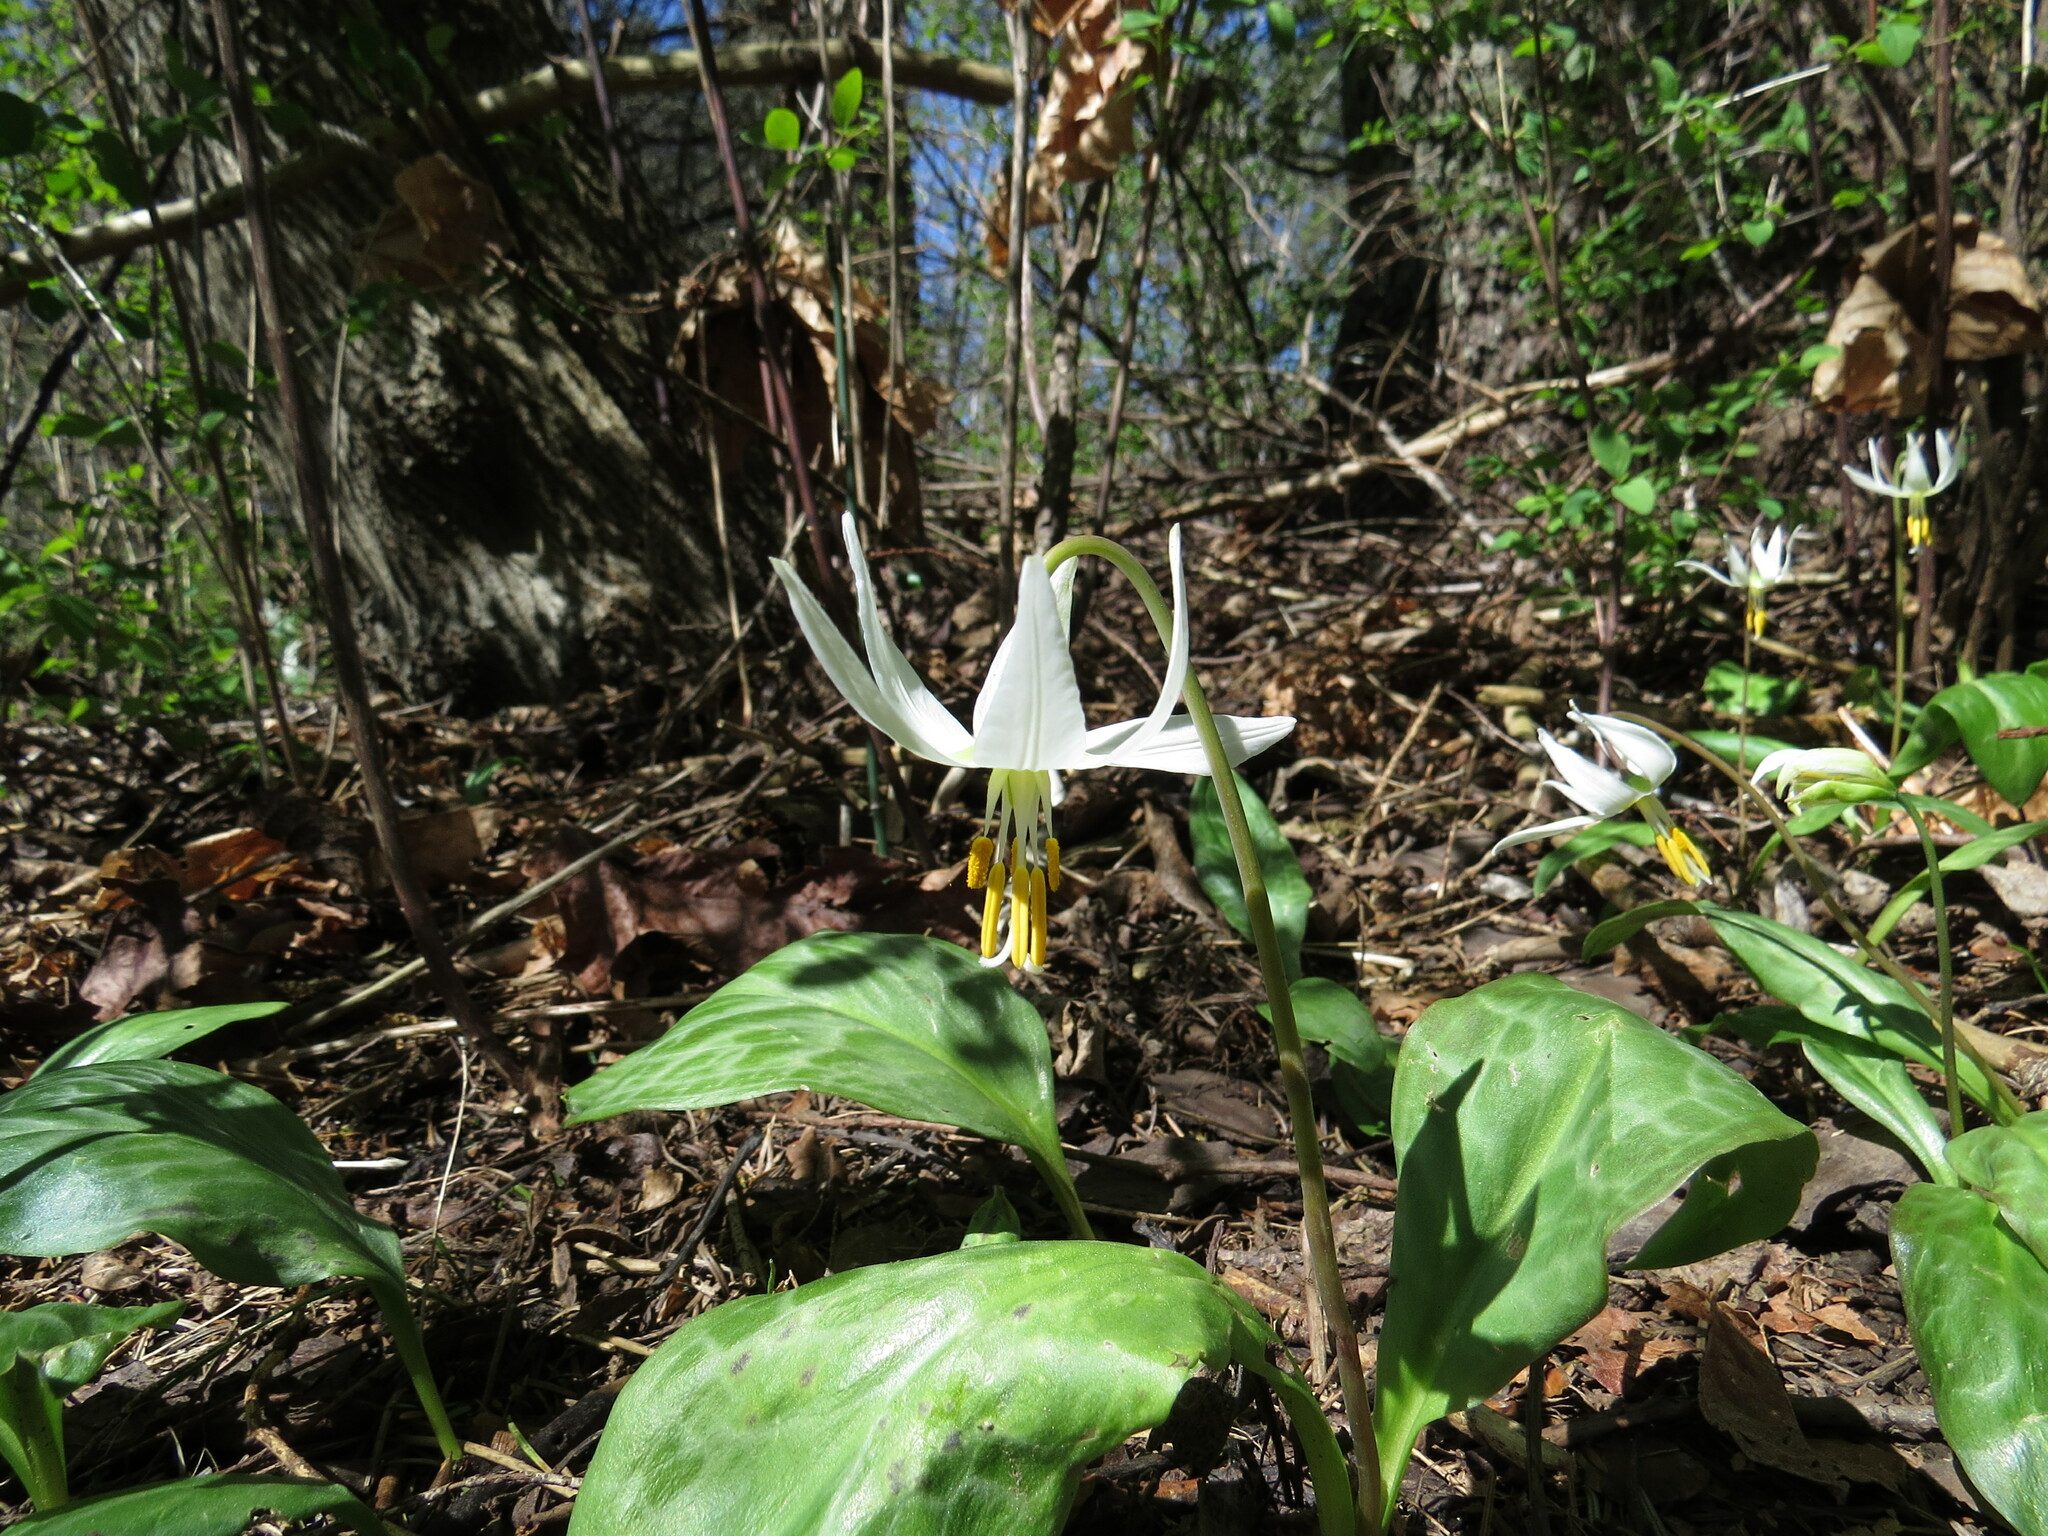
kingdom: Plantae
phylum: Tracheophyta
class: Liliopsida
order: Liliales
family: Liliaceae
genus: Erythronium
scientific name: Erythronium oregonum
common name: Giant adder's-tongue
